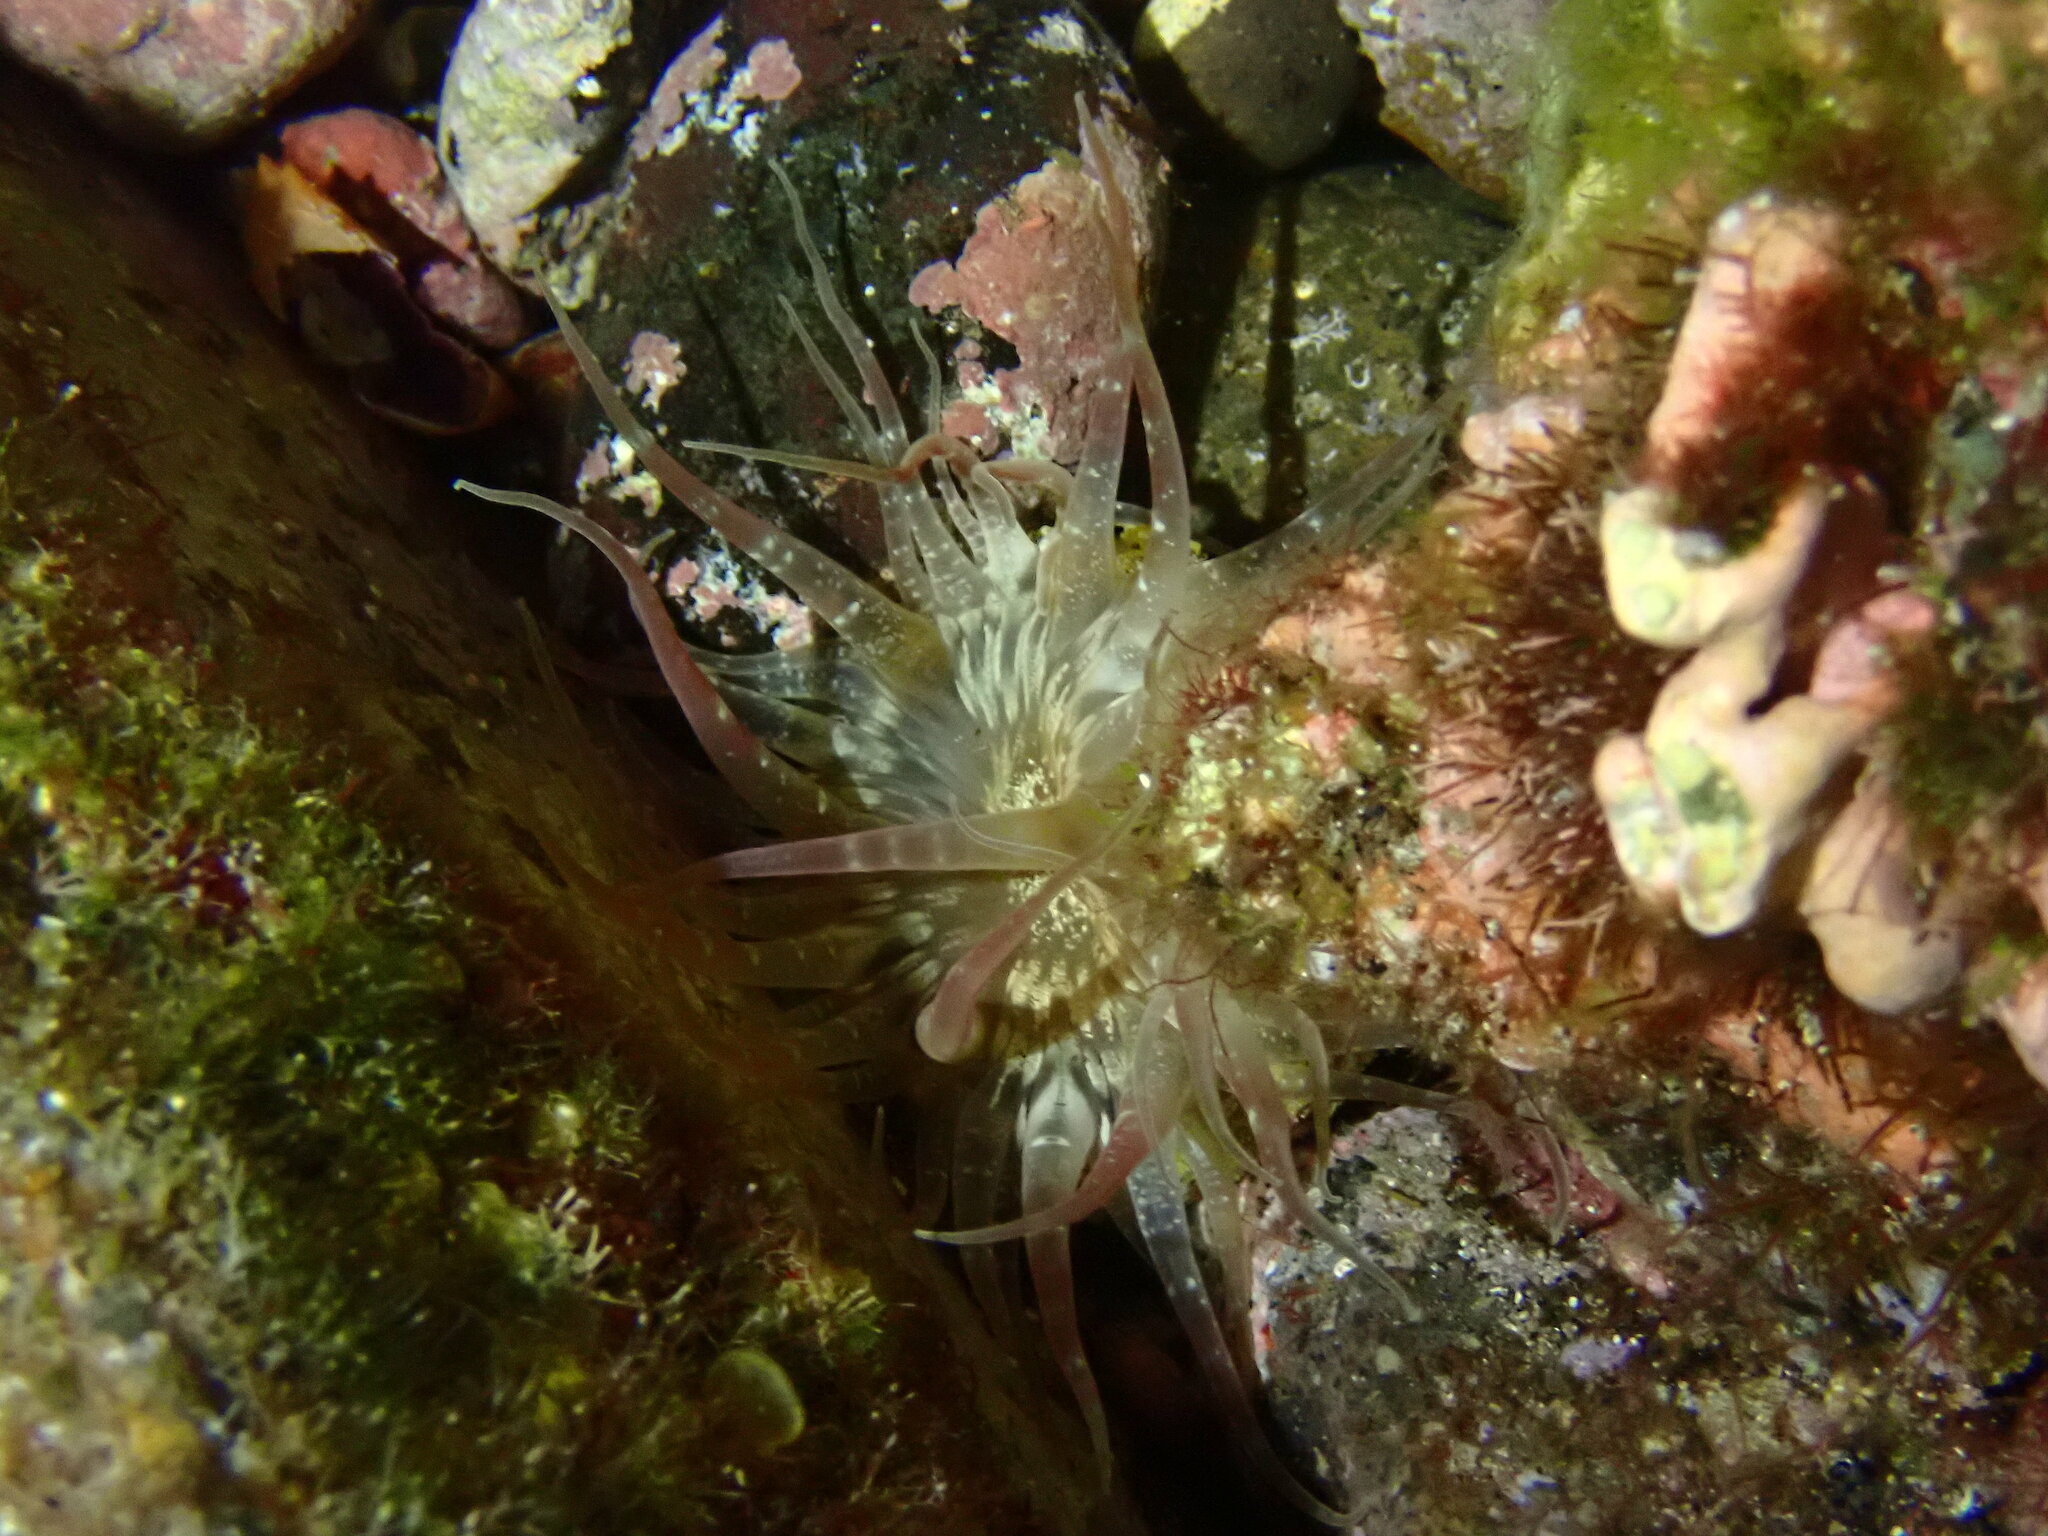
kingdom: Animalia
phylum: Cnidaria
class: Anthozoa
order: Actiniaria
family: Actiniidae
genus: Actinostella
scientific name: Actinostella flosculifera
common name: Collared sand anemone
